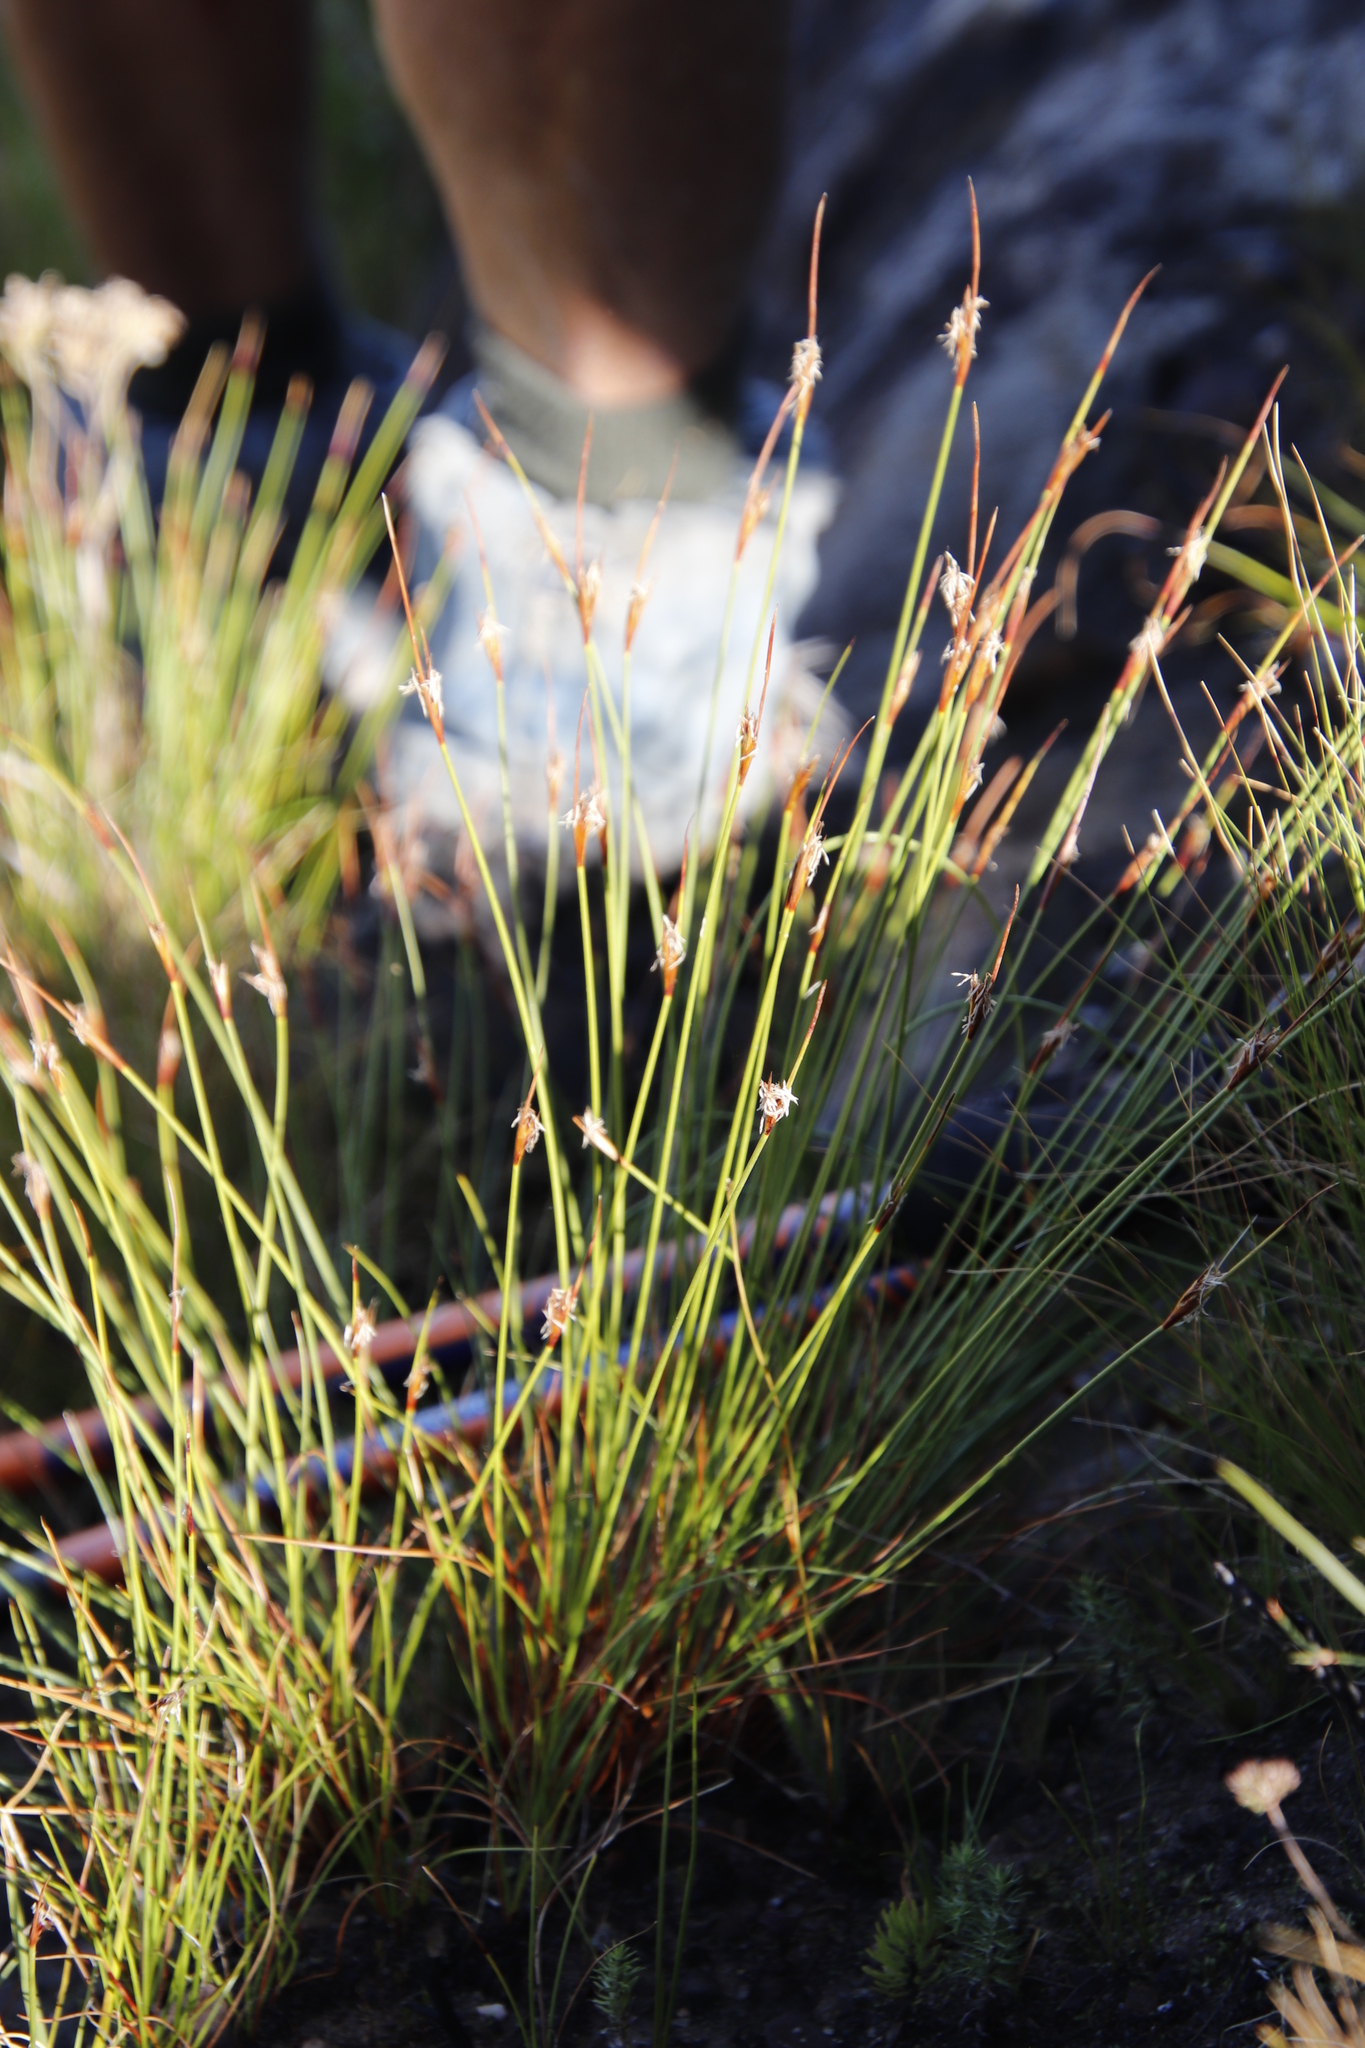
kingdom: Plantae
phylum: Tracheophyta
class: Liliopsida
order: Poales
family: Cyperaceae
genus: Schoenus
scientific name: Schoenus pictus
